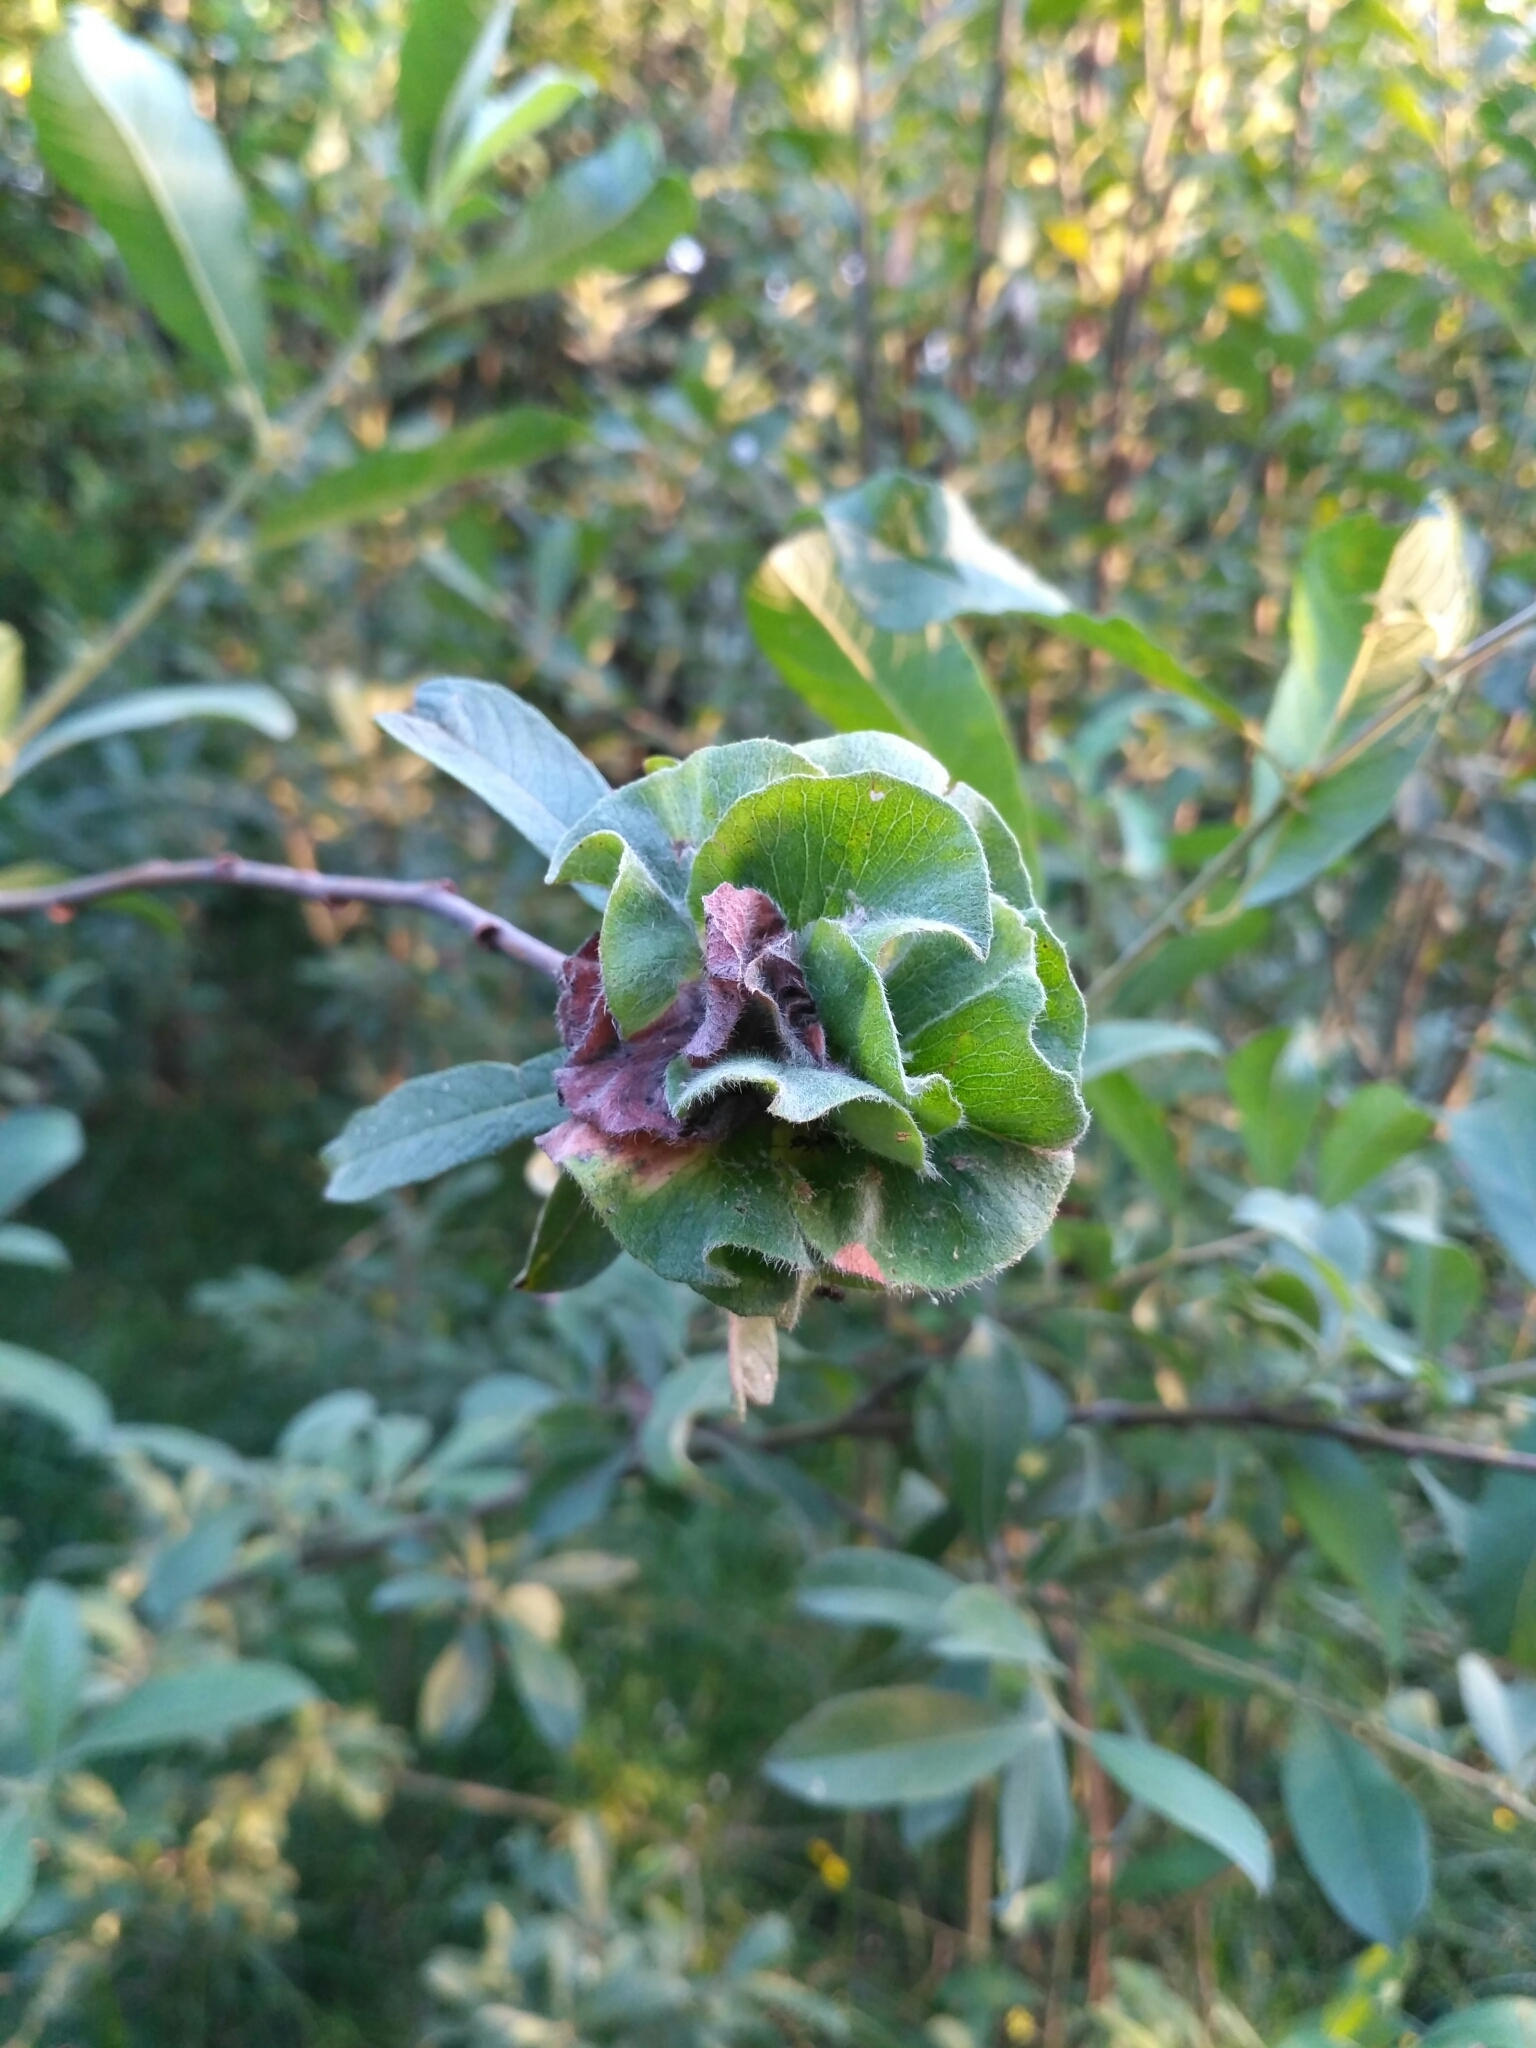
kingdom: Plantae
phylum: Tracheophyta
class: Magnoliopsida
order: Malpighiales
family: Salicaceae
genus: Salix
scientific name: Salix cinerea
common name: Common sallow
